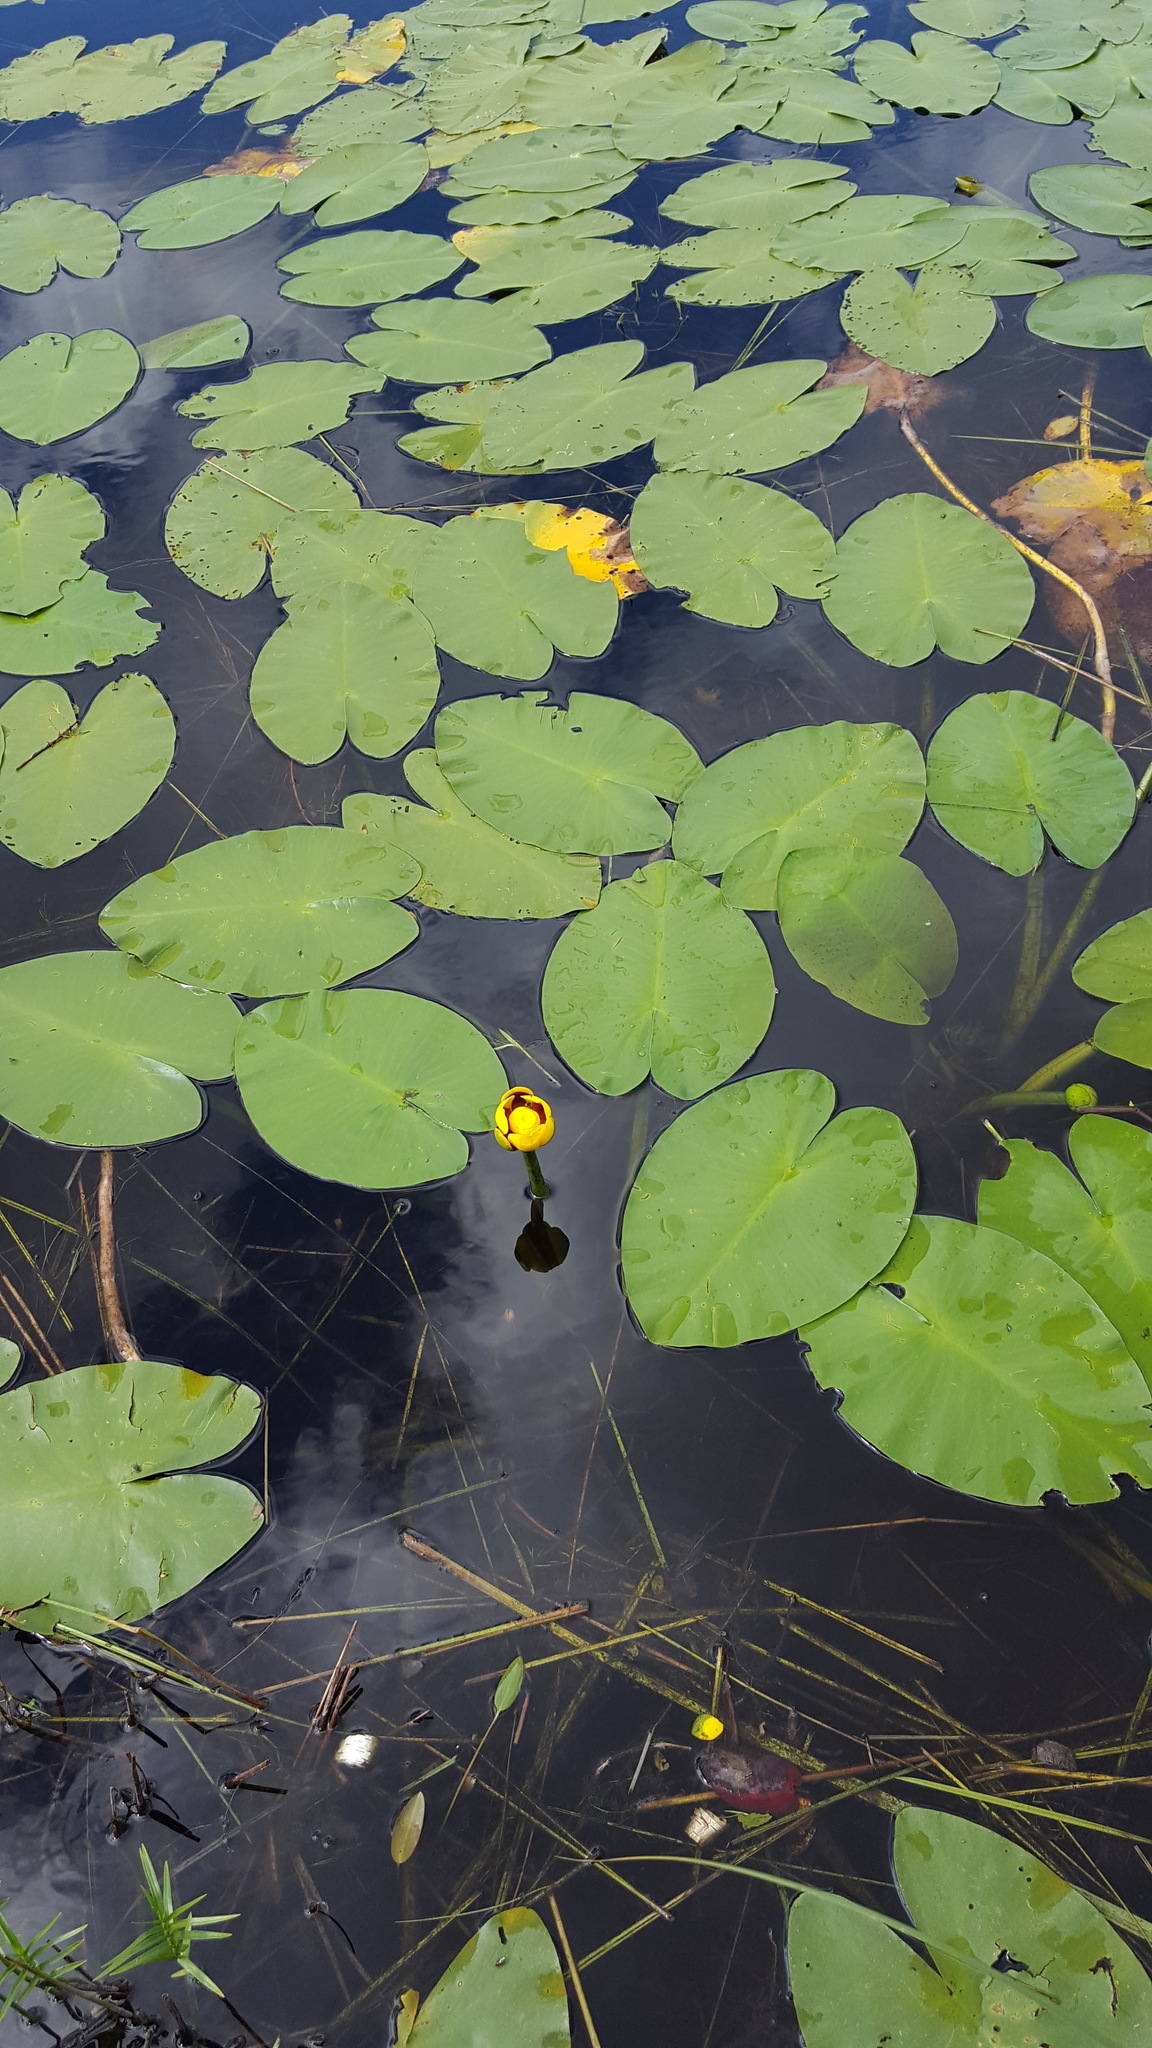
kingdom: Plantae
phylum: Tracheophyta
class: Magnoliopsida
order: Nymphaeales
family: Nymphaeaceae
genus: Nuphar
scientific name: Nuphar variegata
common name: Beaver-root
